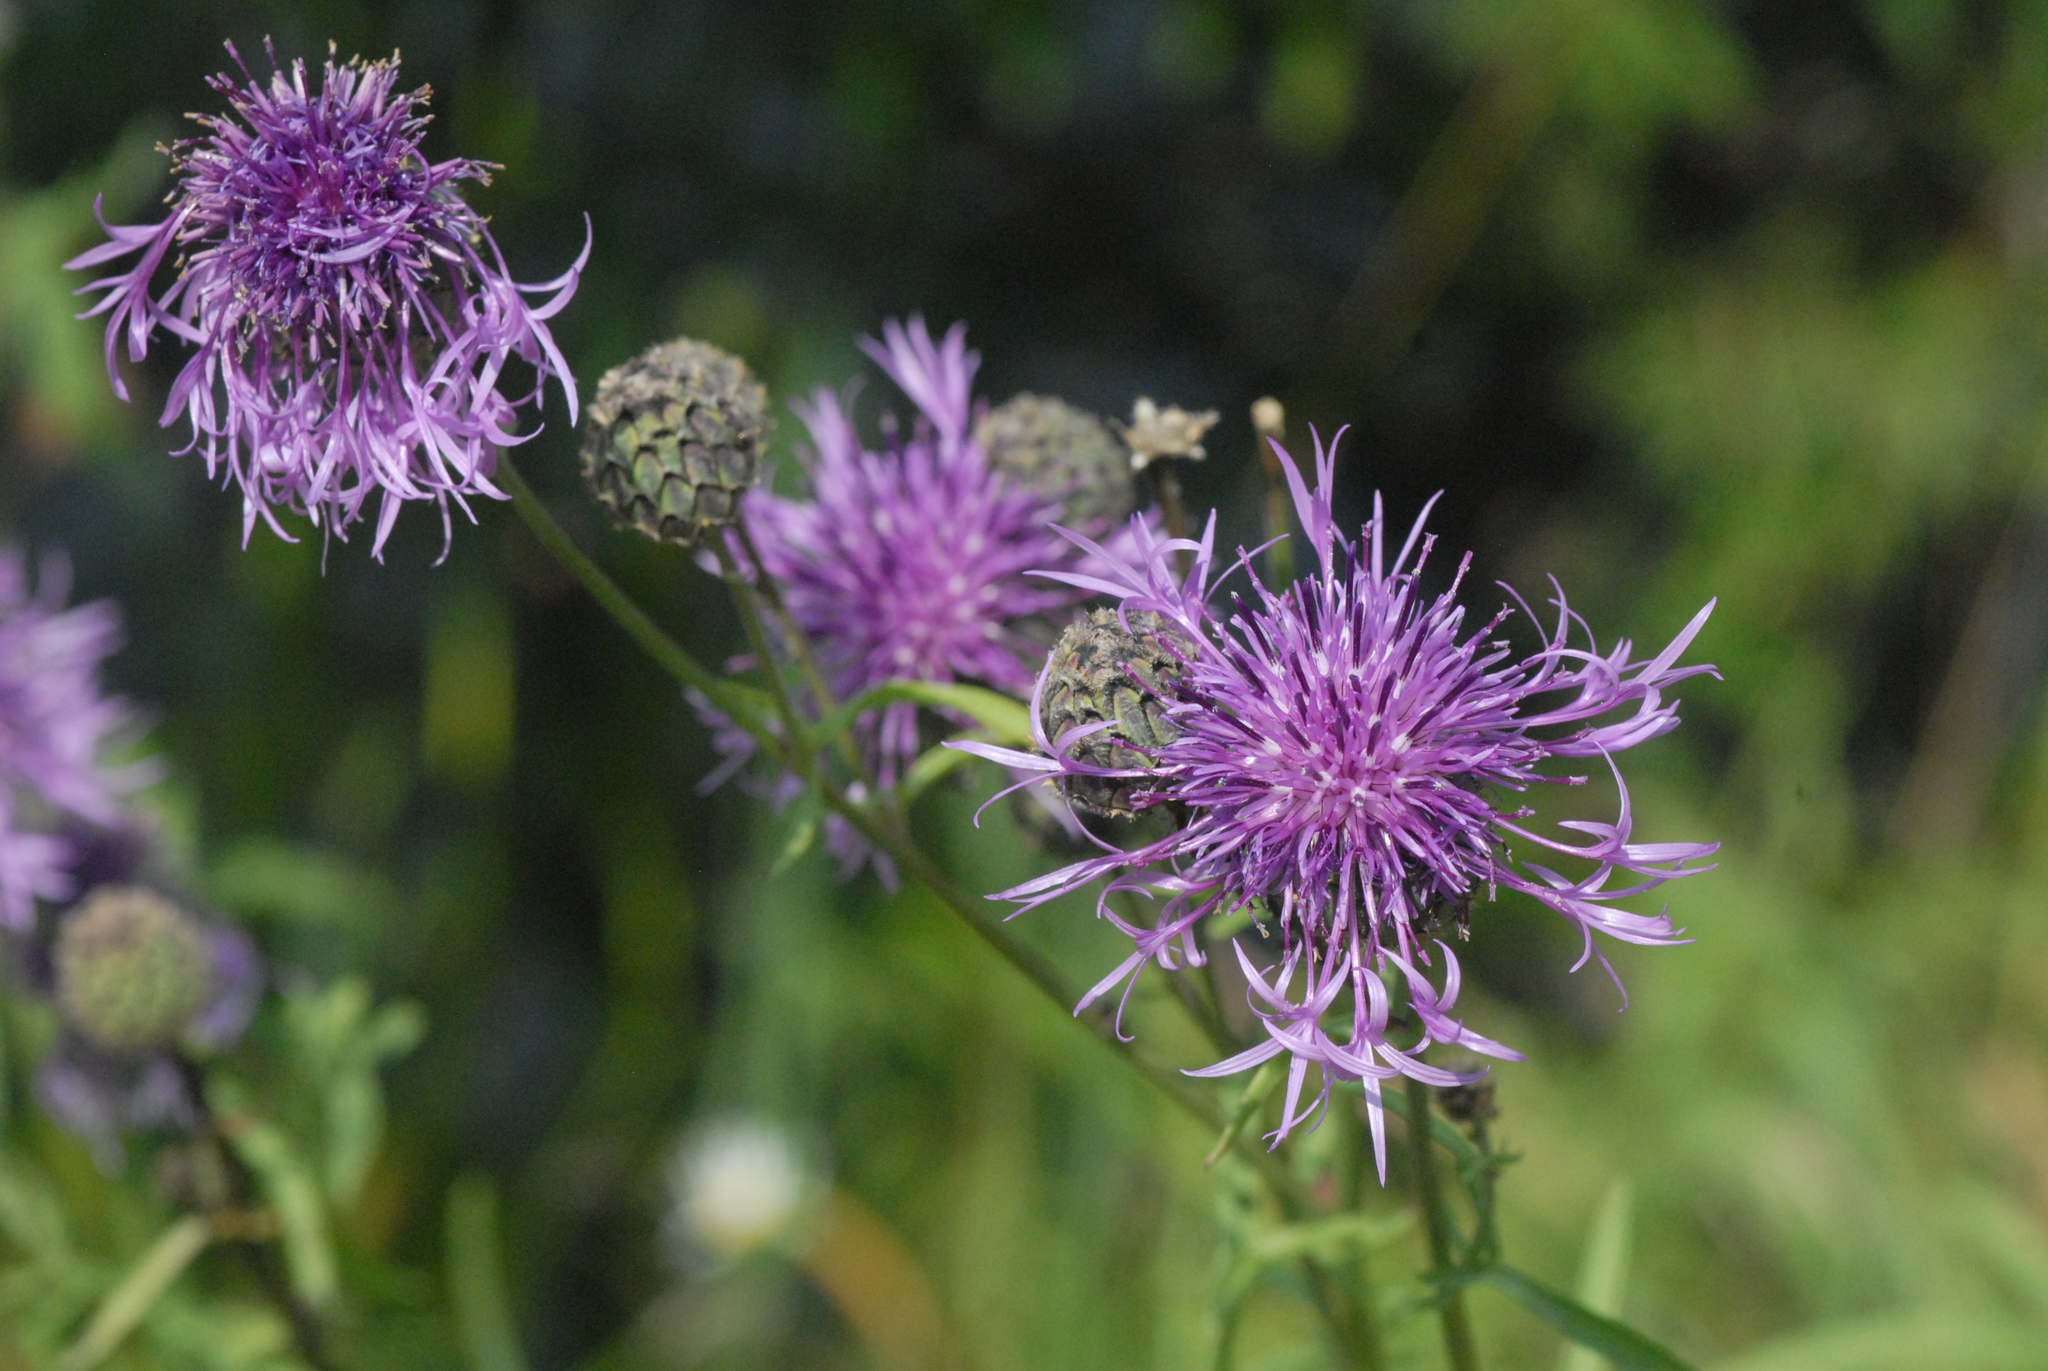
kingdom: Plantae
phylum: Tracheophyta
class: Magnoliopsida
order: Asterales
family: Asteraceae
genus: Centaurea
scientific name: Centaurea scabiosa
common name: Greater knapweed
